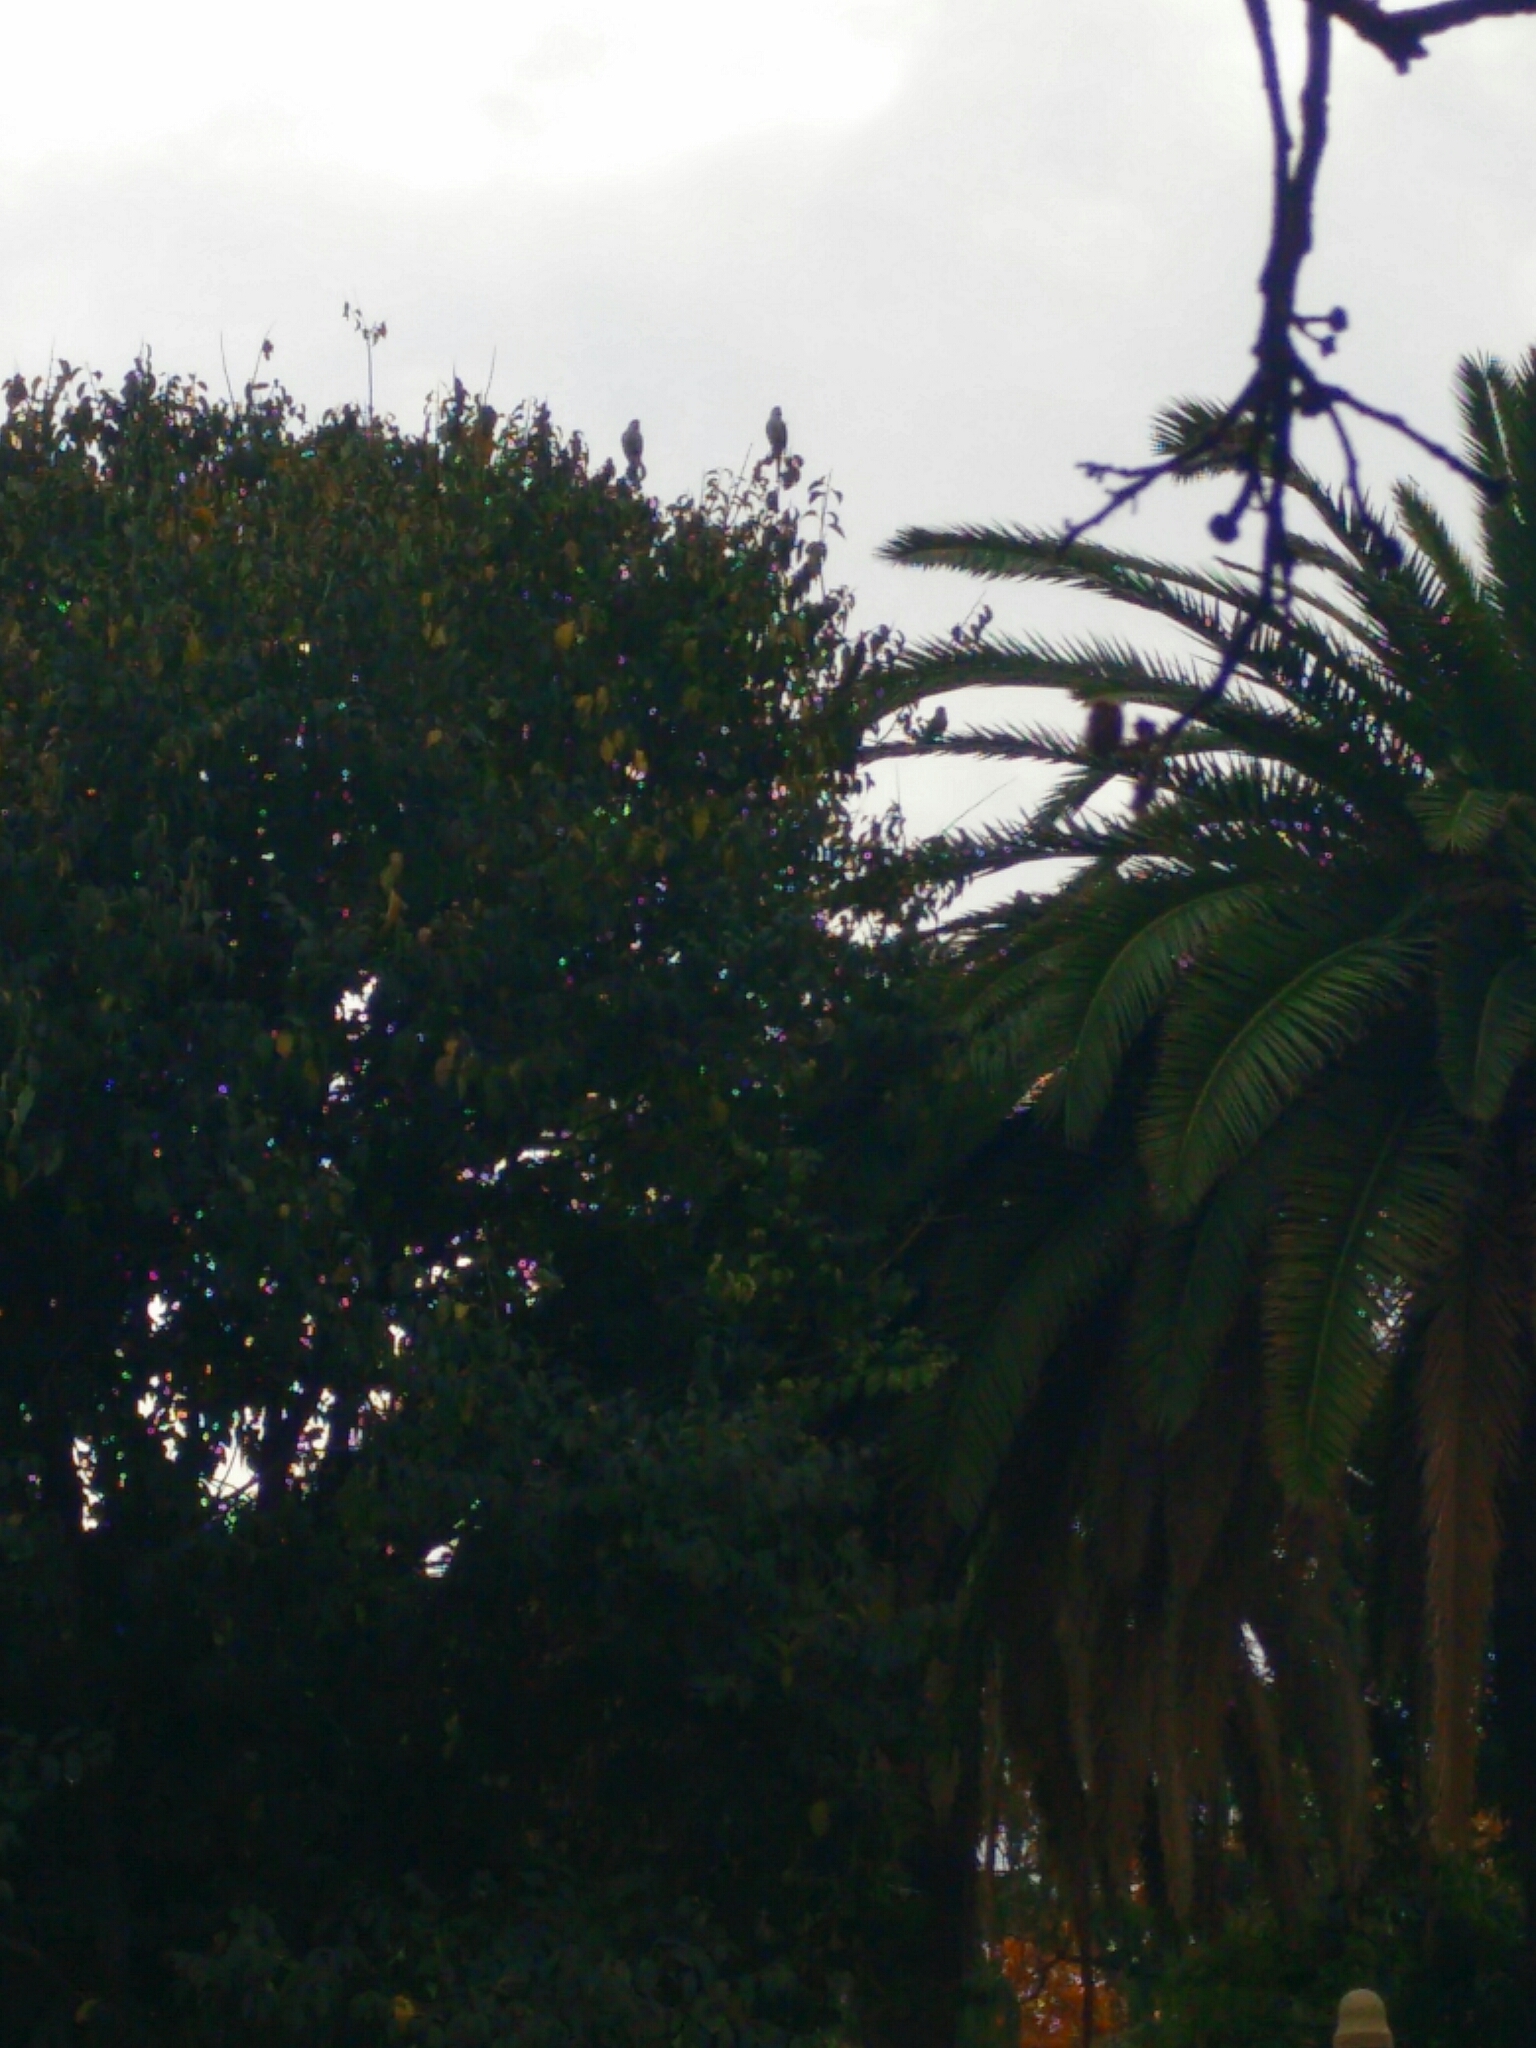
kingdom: Animalia
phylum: Chordata
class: Aves
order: Psittaciformes
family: Psittacidae
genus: Myiopsitta
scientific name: Myiopsitta monachus
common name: Monk parakeet
